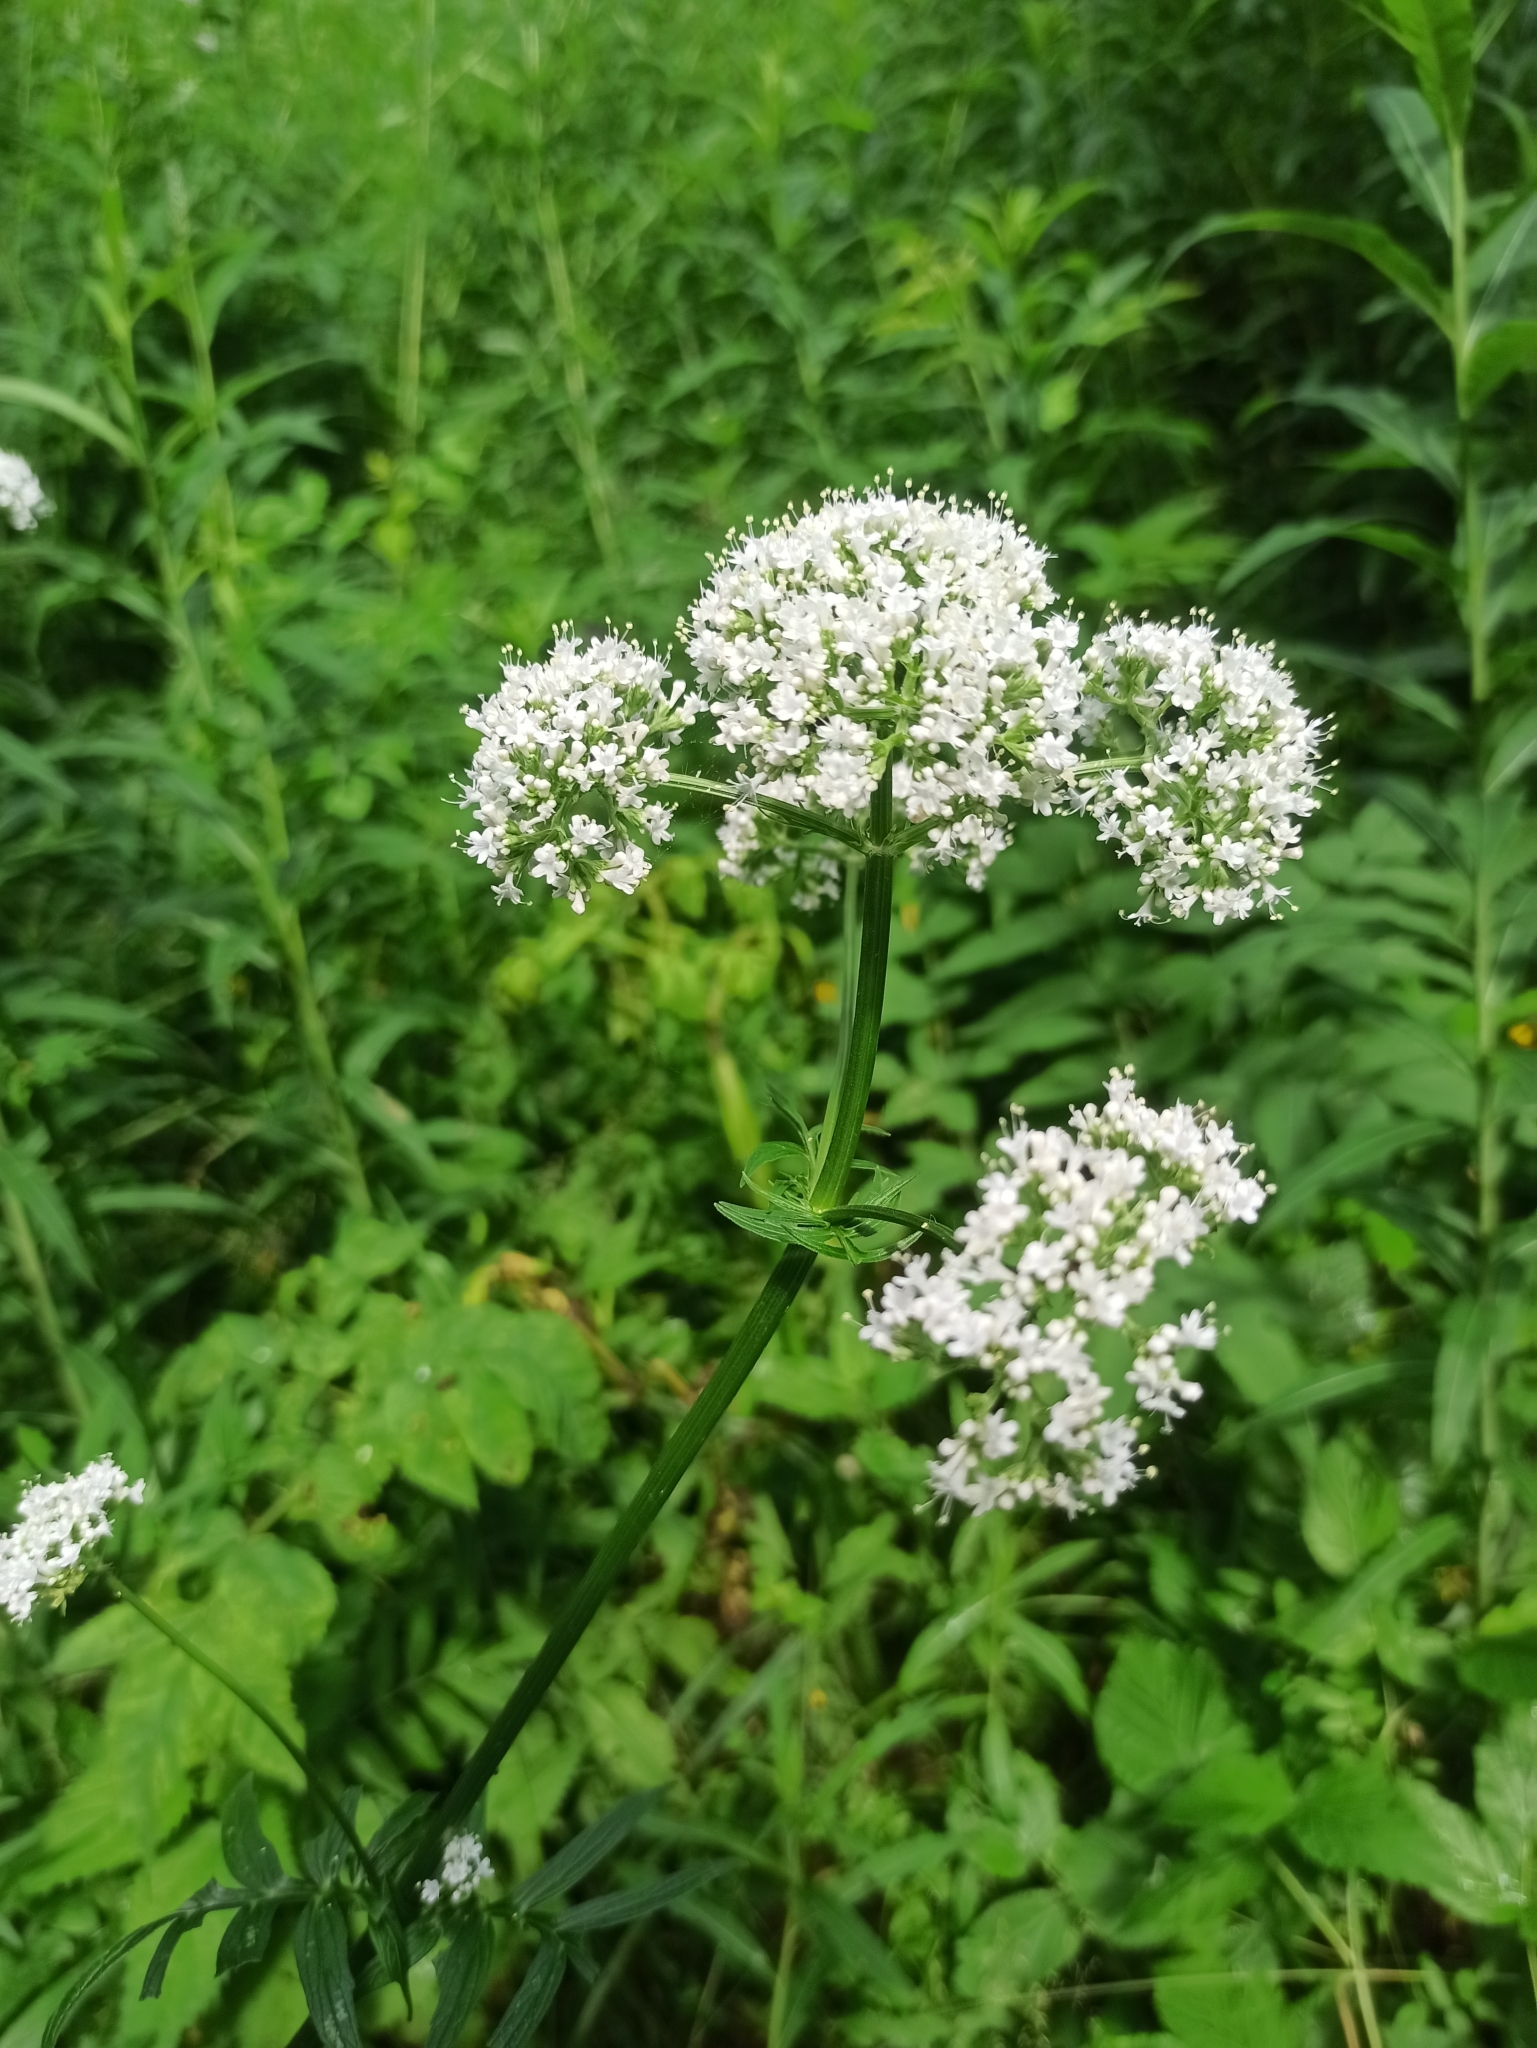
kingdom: Plantae
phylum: Tracheophyta
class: Magnoliopsida
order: Dipsacales
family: Caprifoliaceae
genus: Valeriana
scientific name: Valeriana officinalis
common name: Common valerian
